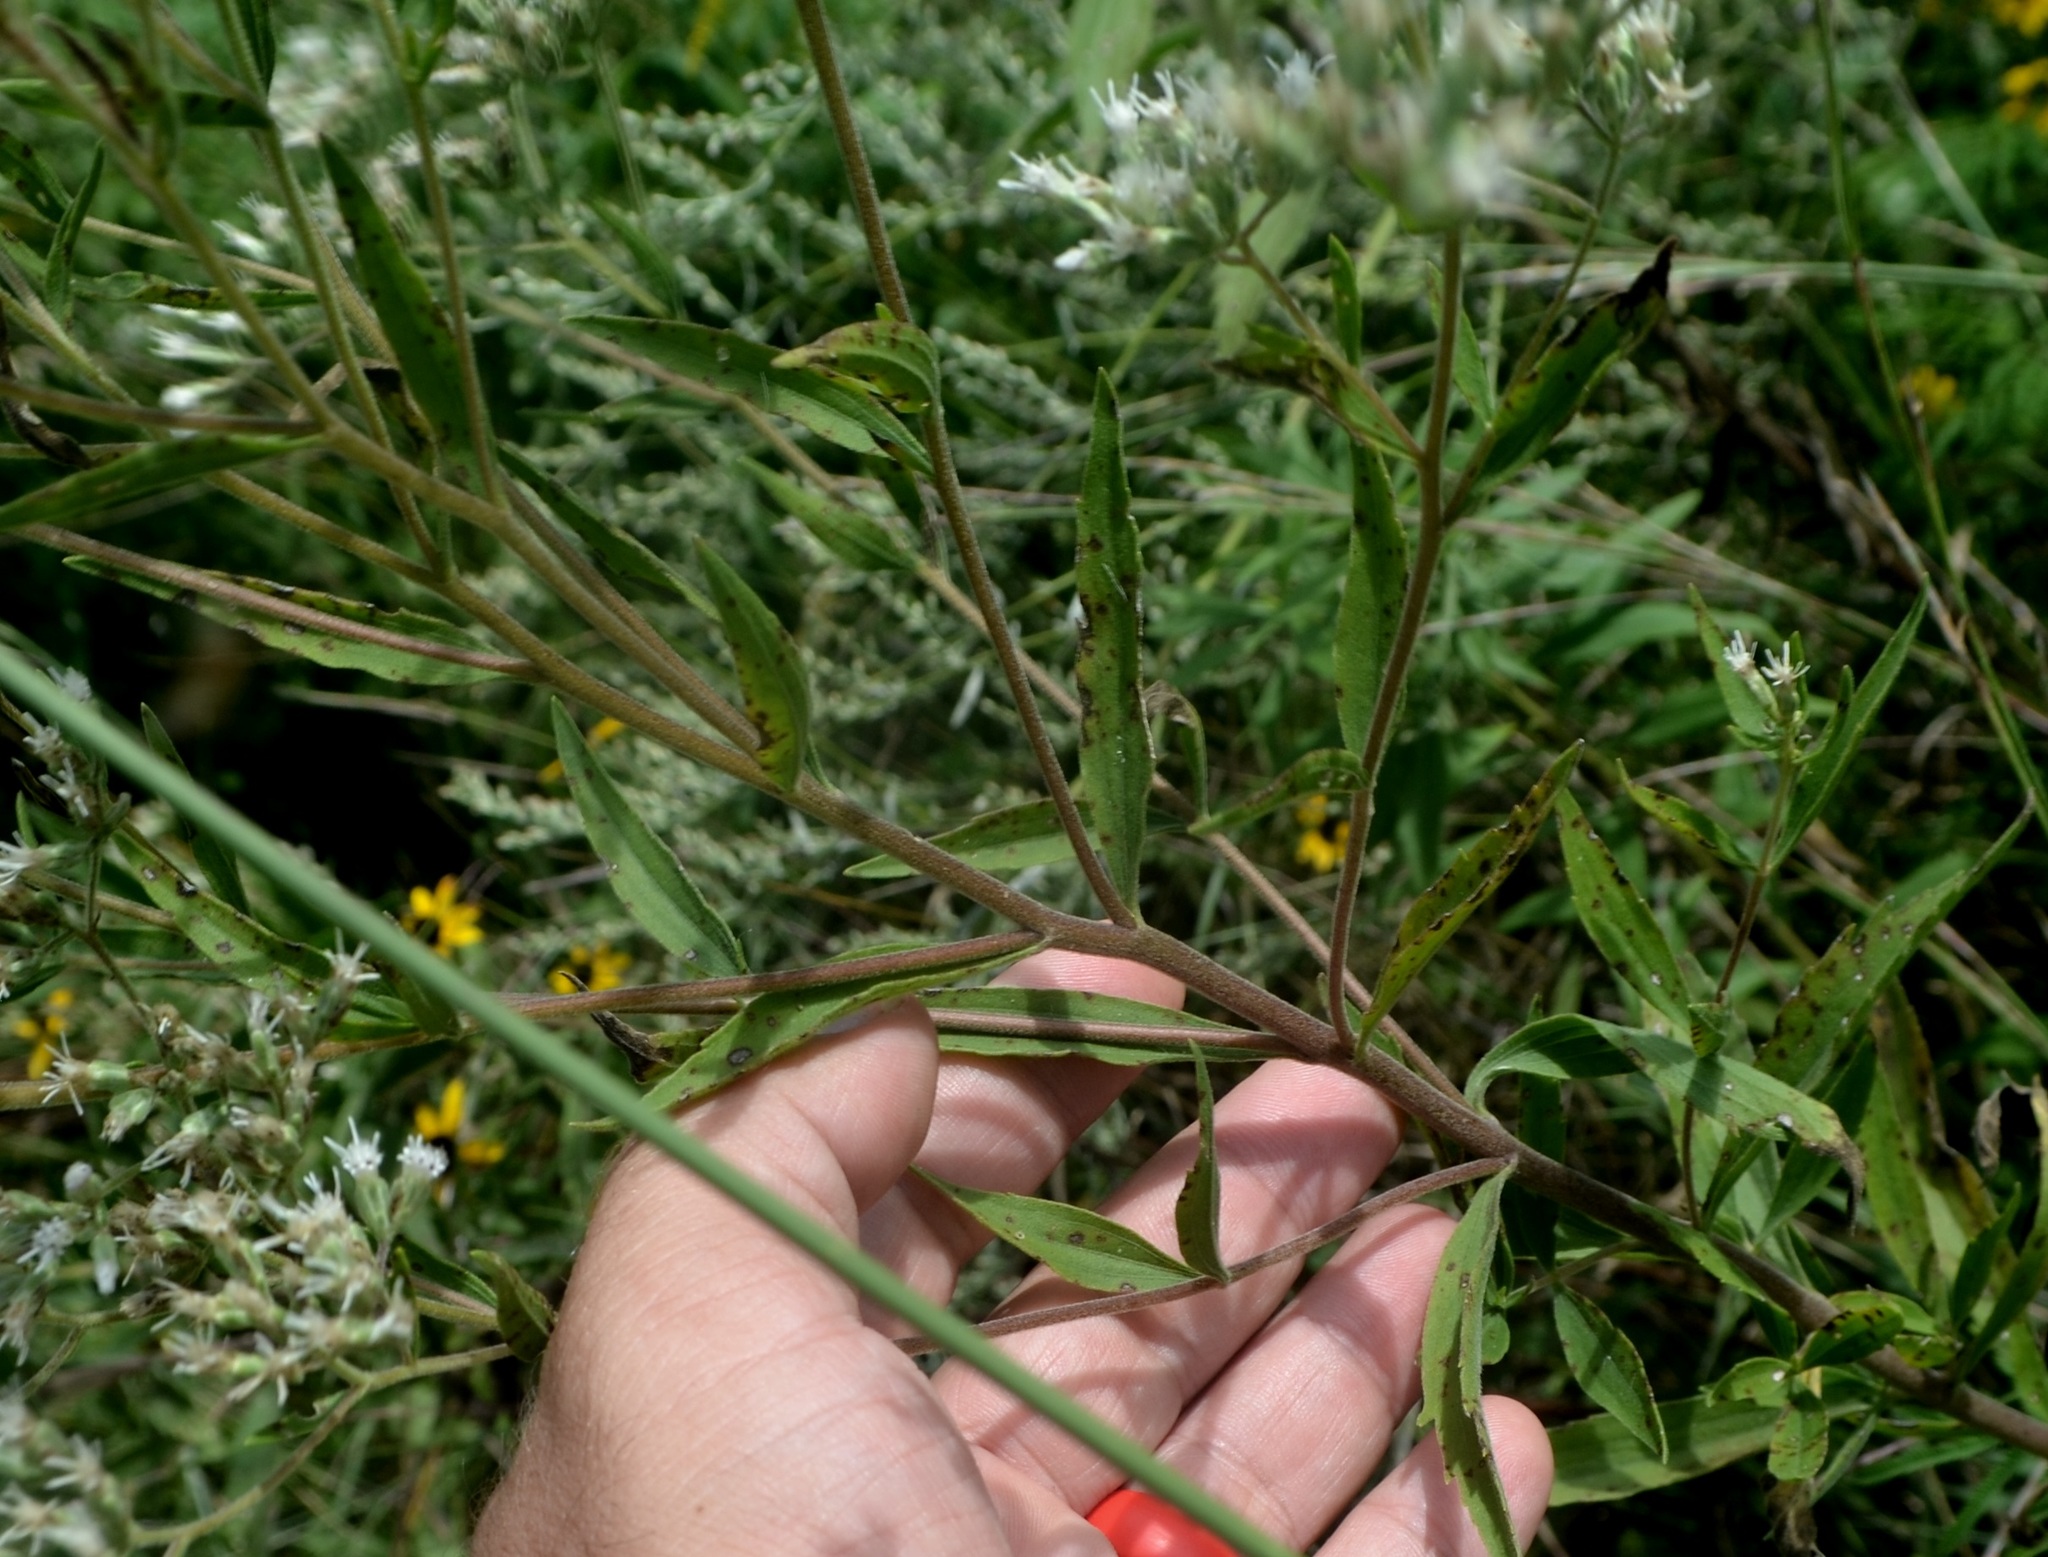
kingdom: Plantae
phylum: Tracheophyta
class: Magnoliopsida
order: Asterales
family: Asteraceae
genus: Ageratina
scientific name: Ageratina altissima
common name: White snakeroot
